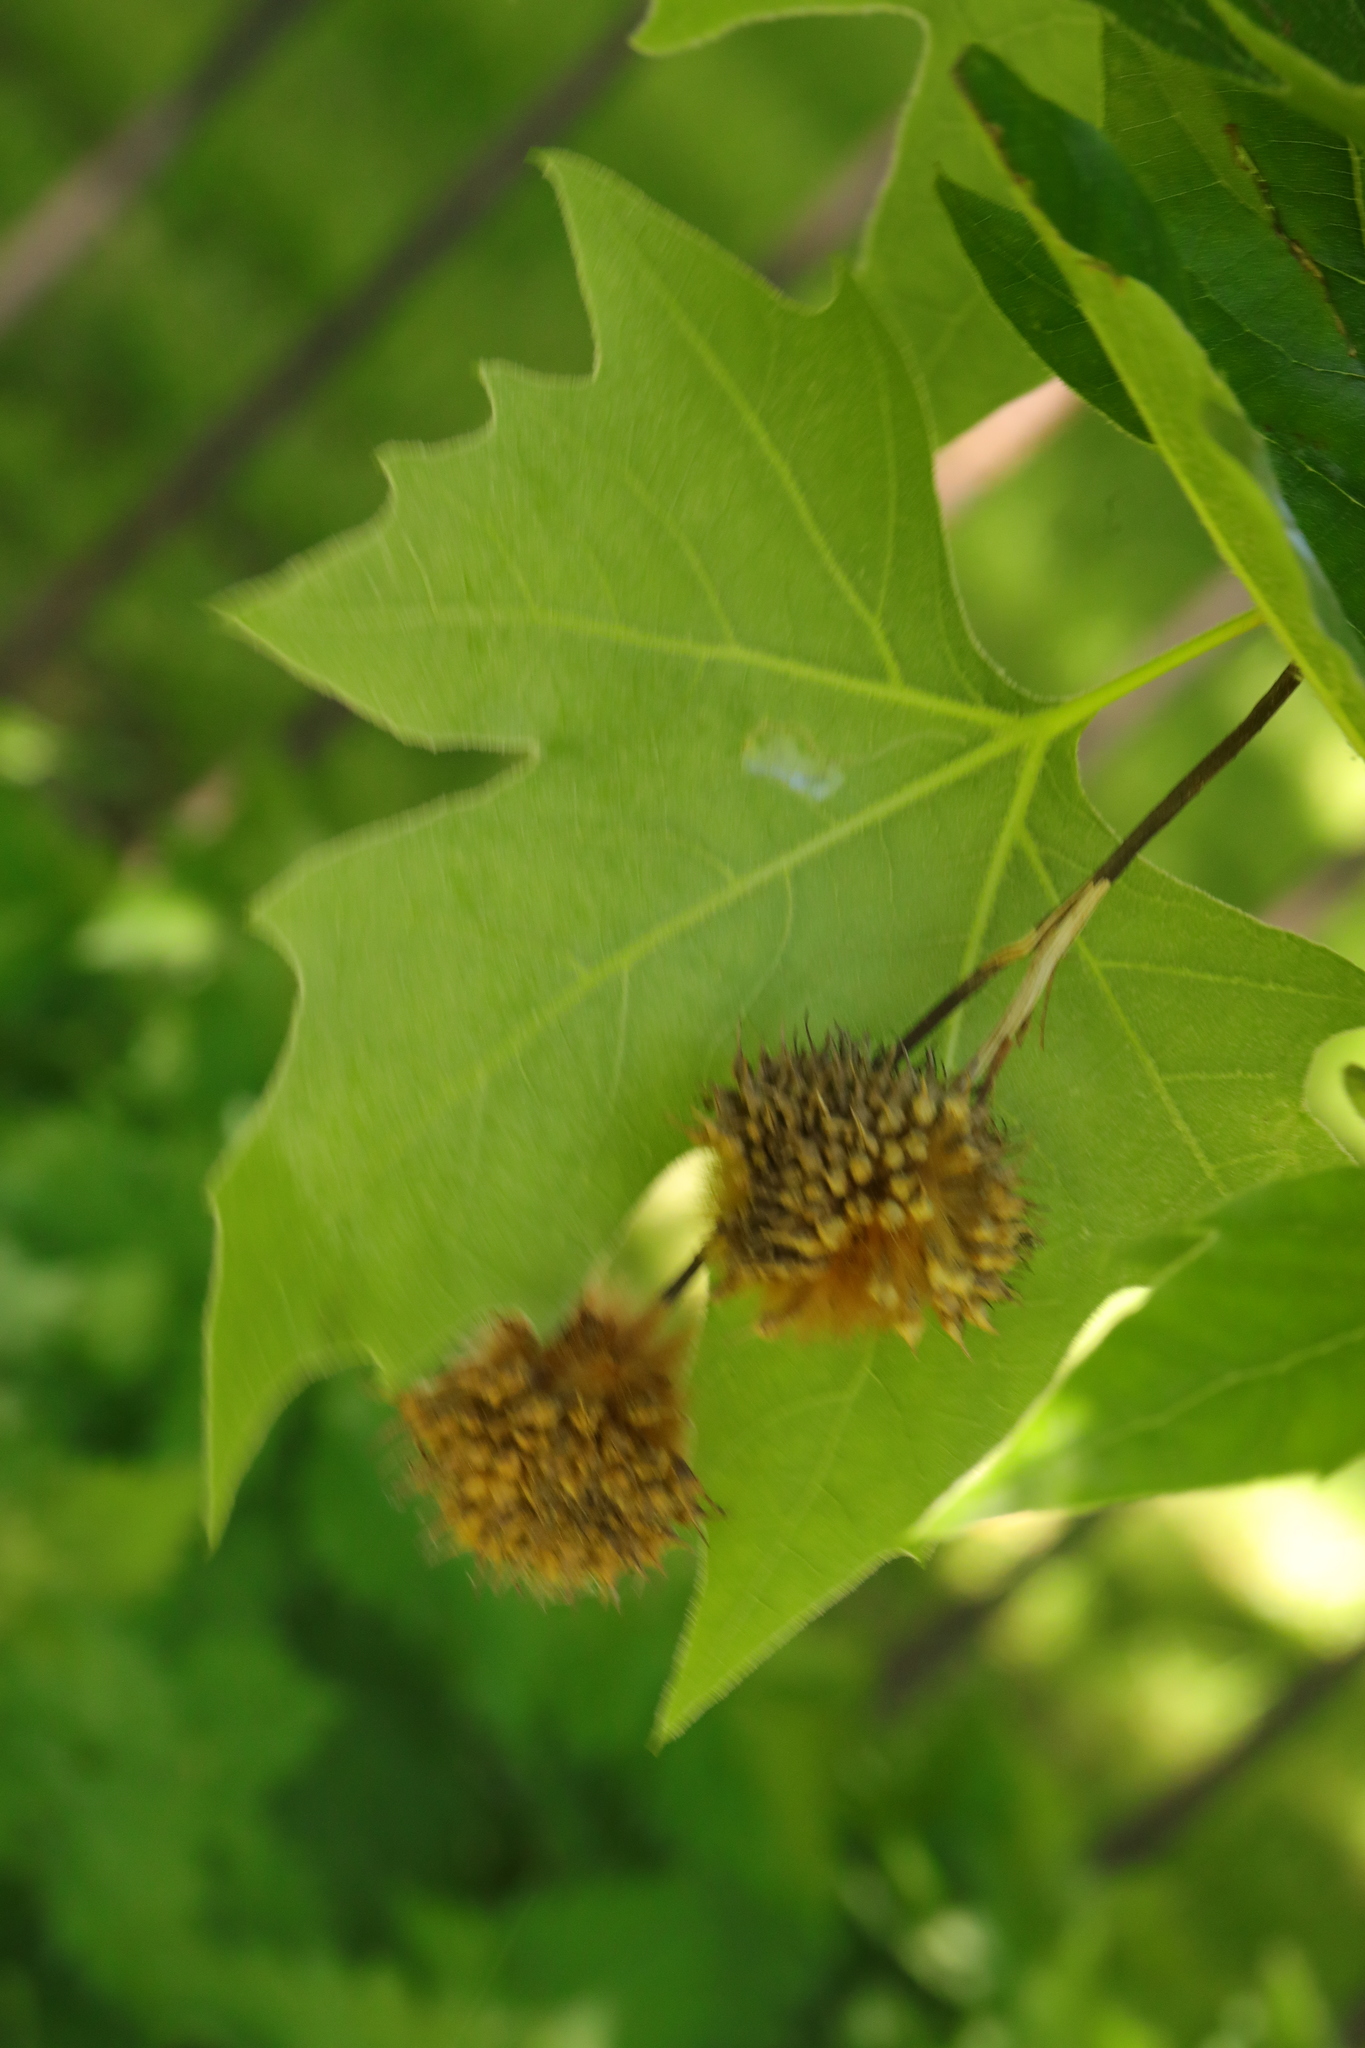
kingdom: Plantae
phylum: Tracheophyta
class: Magnoliopsida
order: Proteales
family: Platanaceae
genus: Platanus
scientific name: Platanus hispanica
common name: London plane
